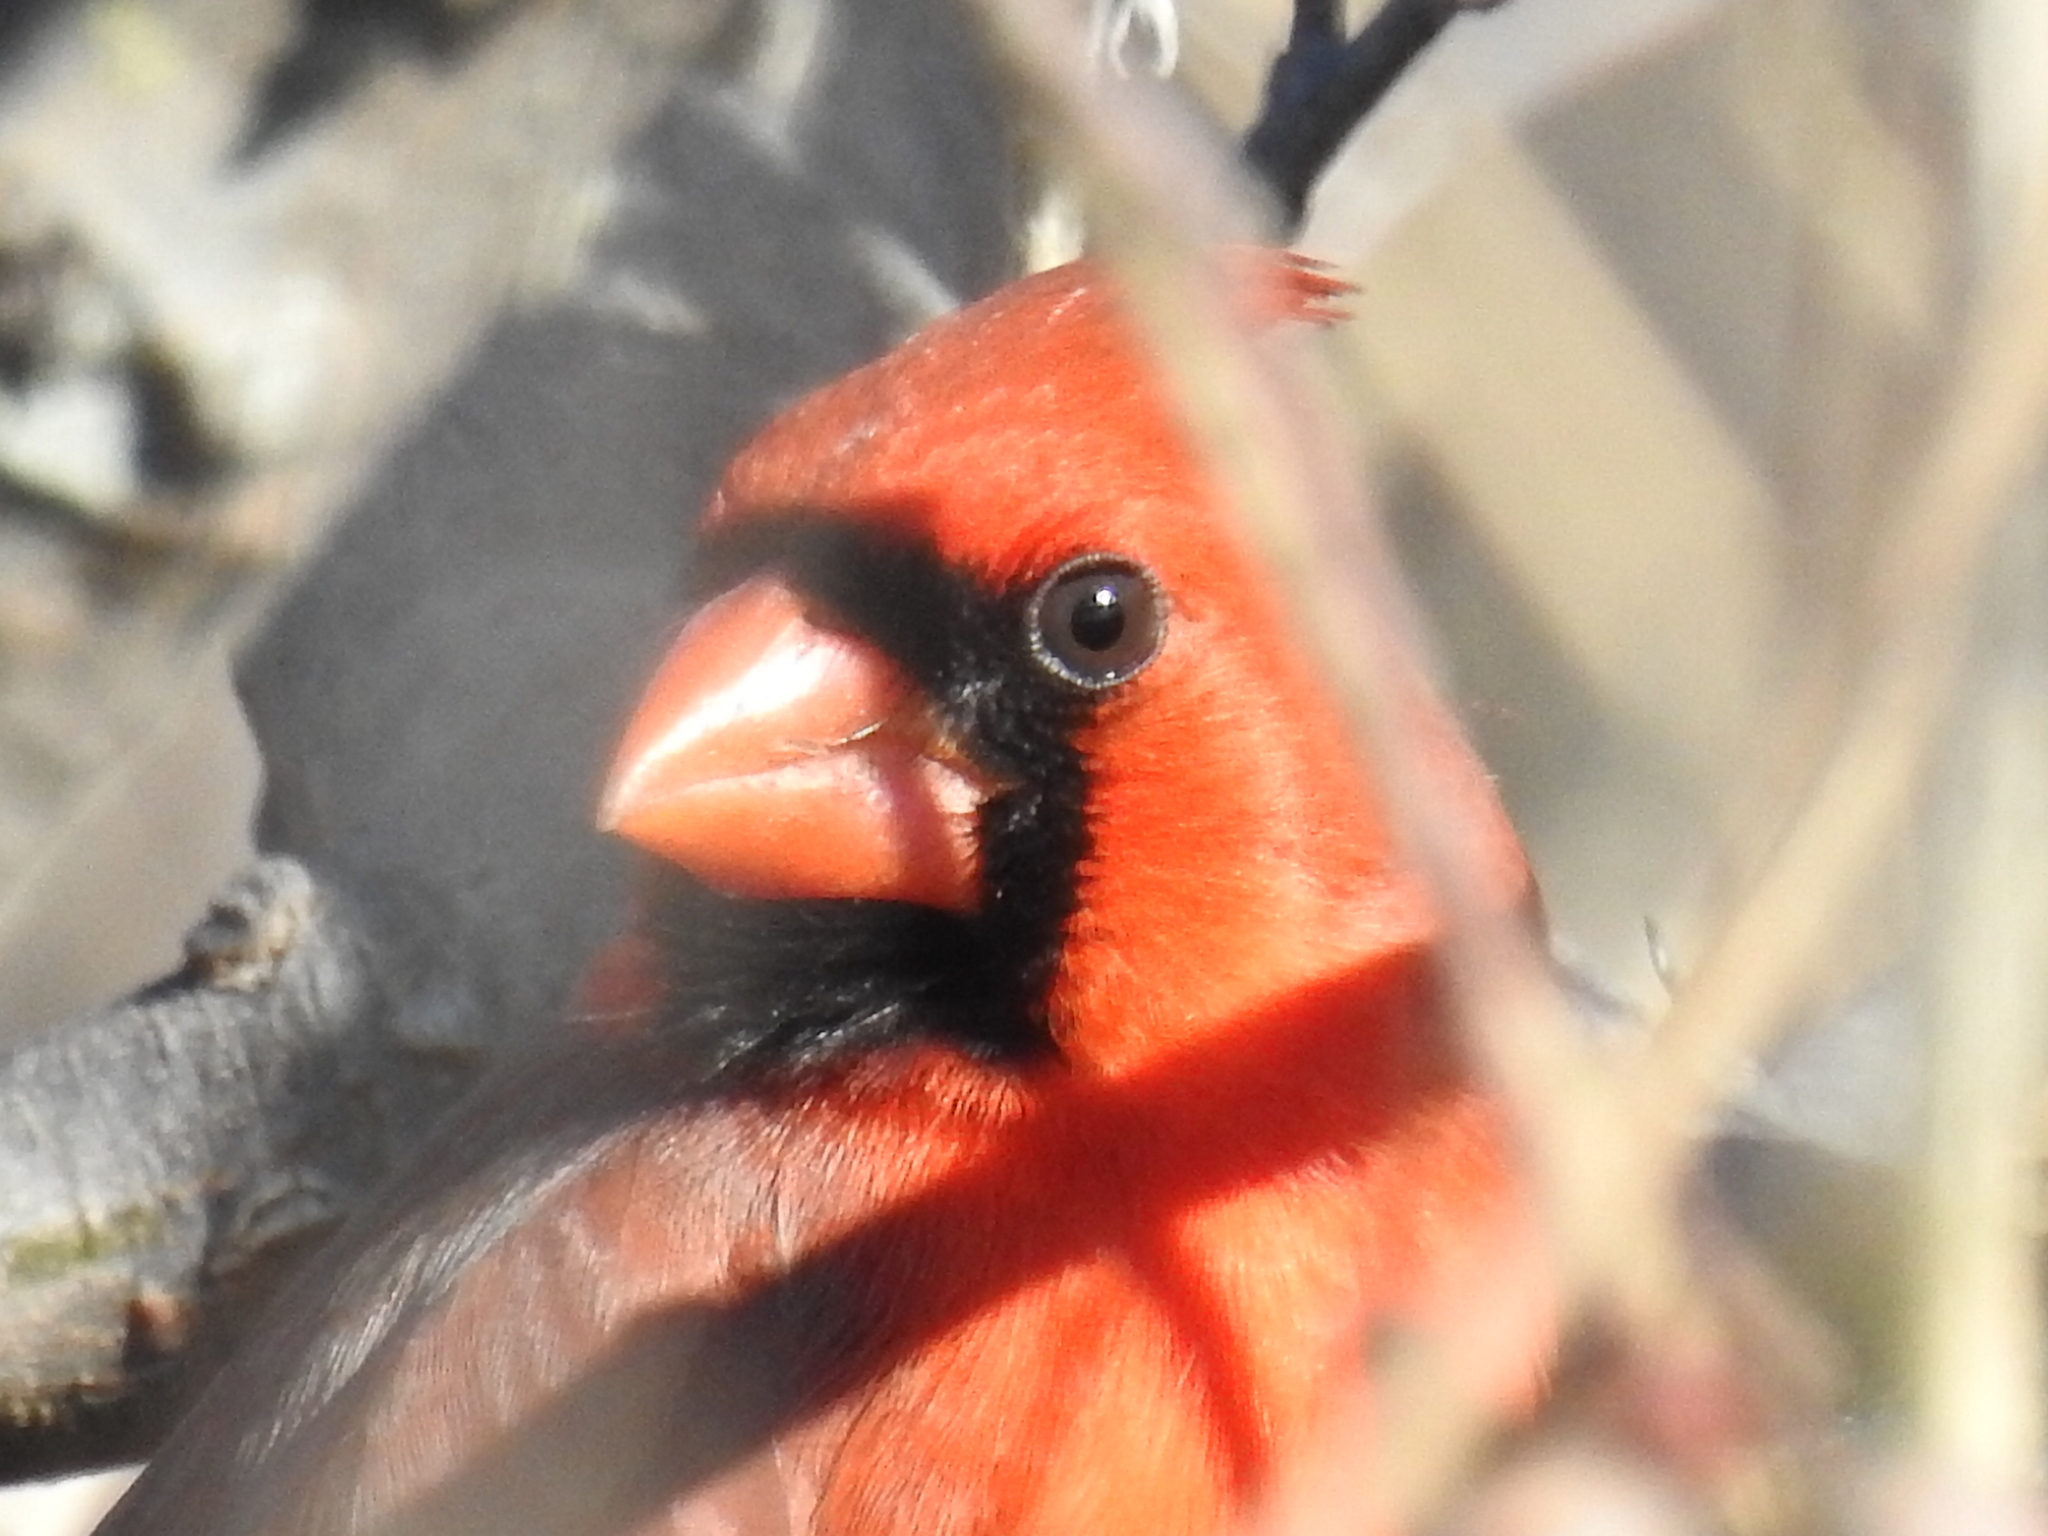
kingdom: Animalia
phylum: Chordata
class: Aves
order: Passeriformes
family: Cardinalidae
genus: Cardinalis
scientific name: Cardinalis cardinalis
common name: Northern cardinal
